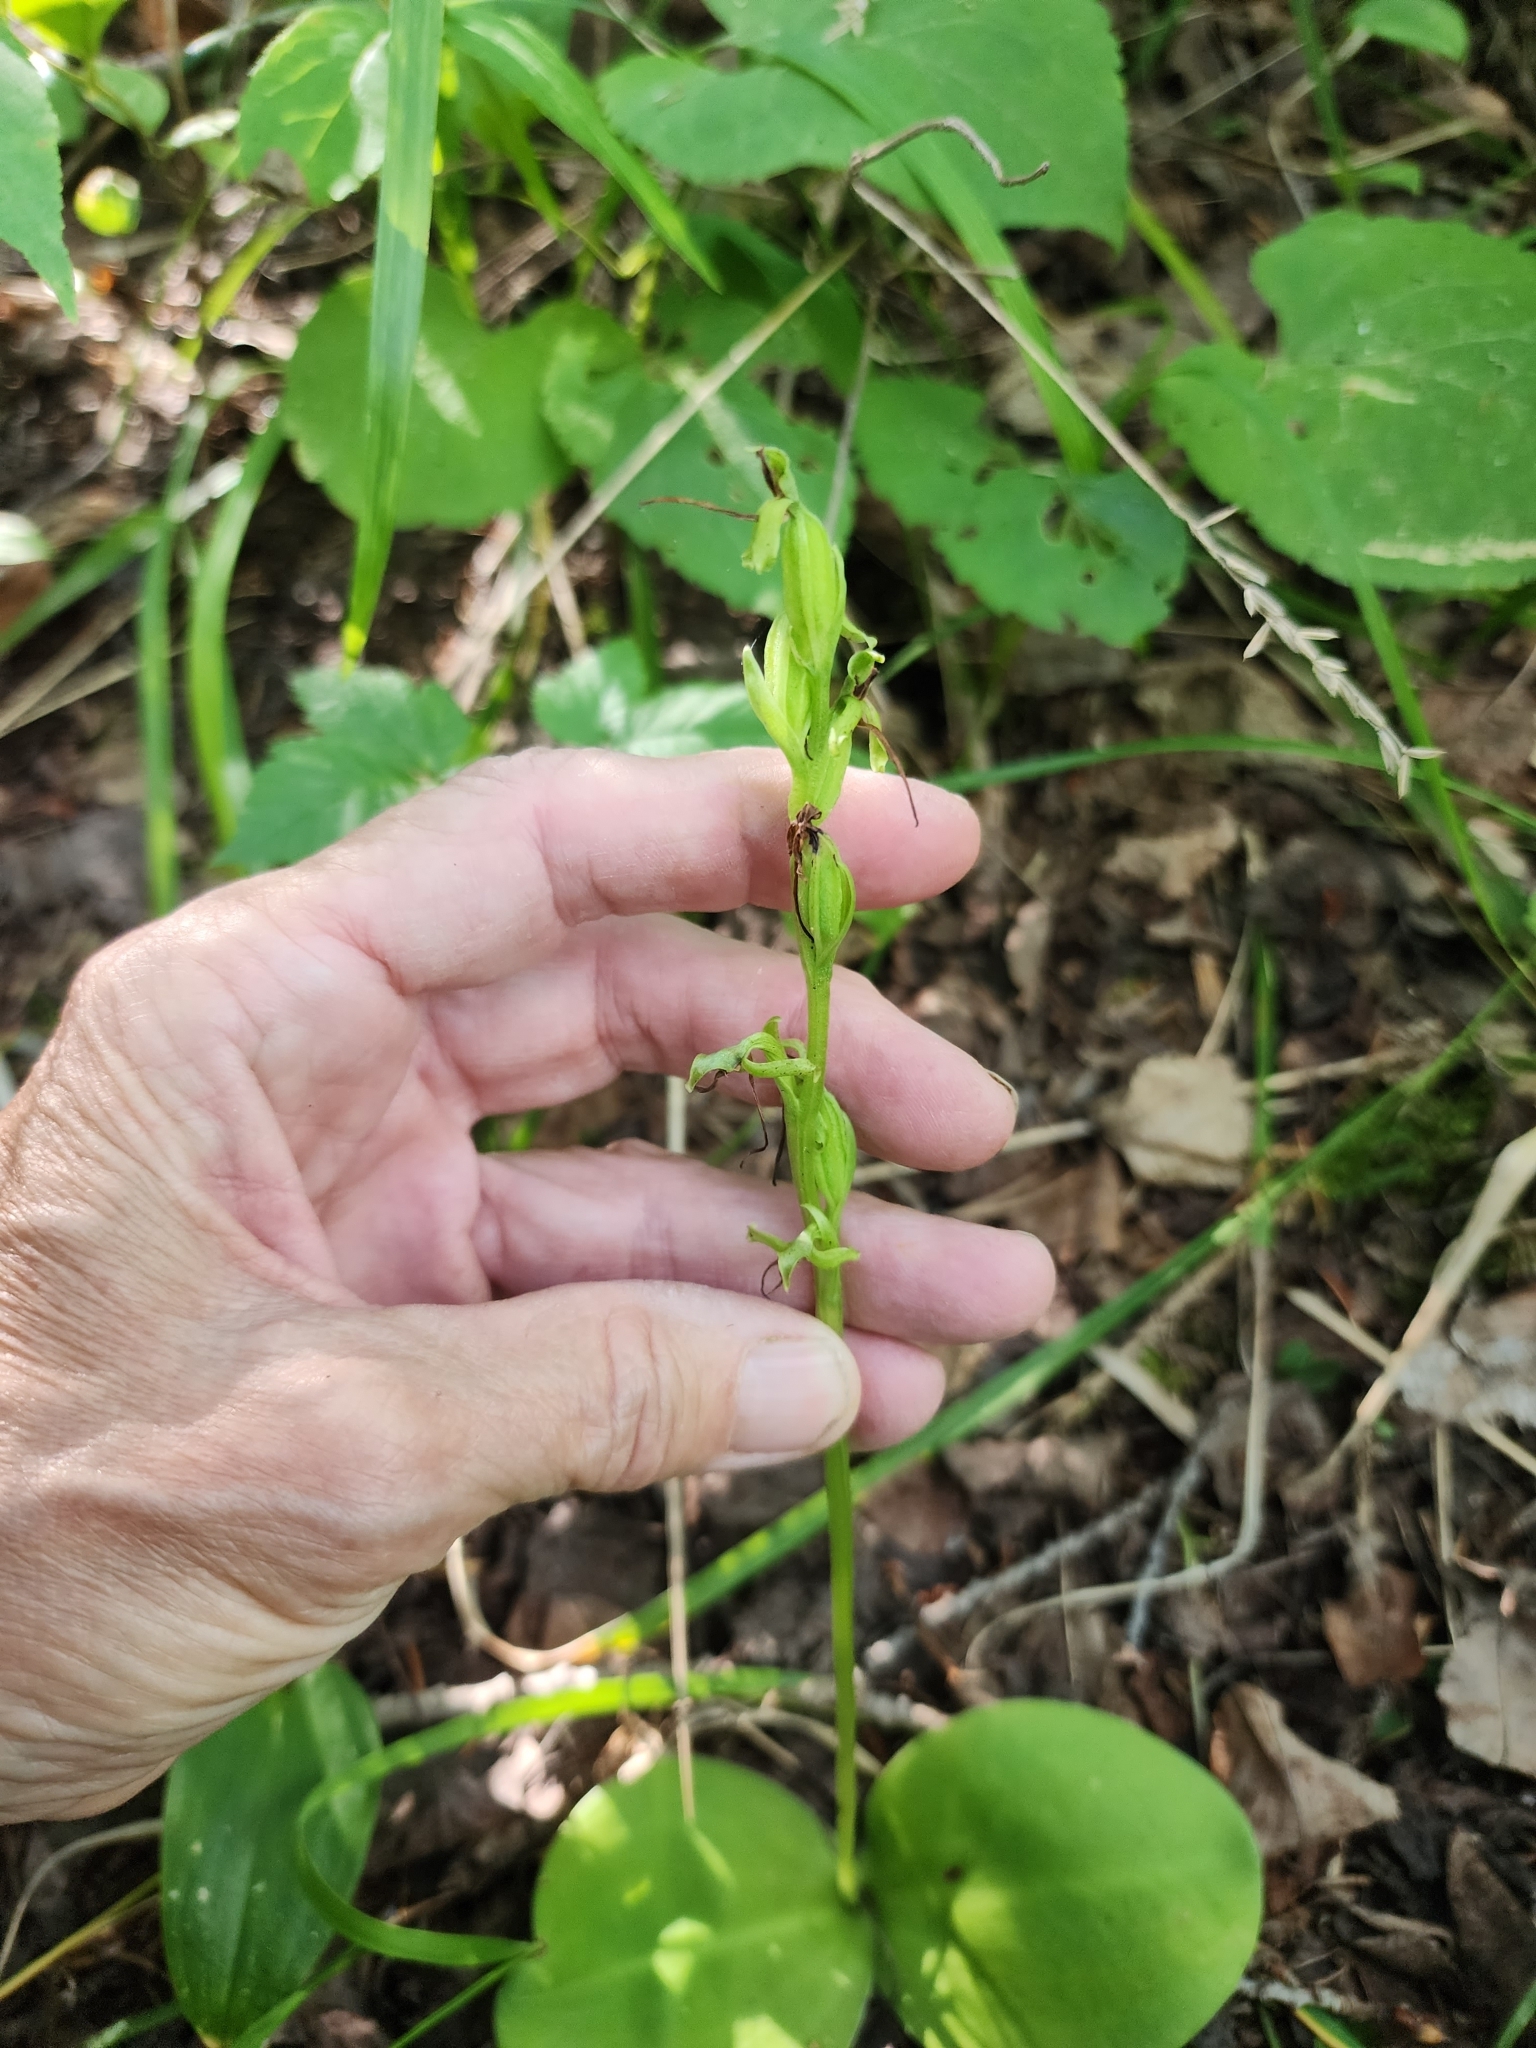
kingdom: Plantae
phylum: Tracheophyta
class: Liliopsida
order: Asparagales
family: Orchidaceae
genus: Platanthera
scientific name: Platanthera hookeri
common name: Hooker's orchid
